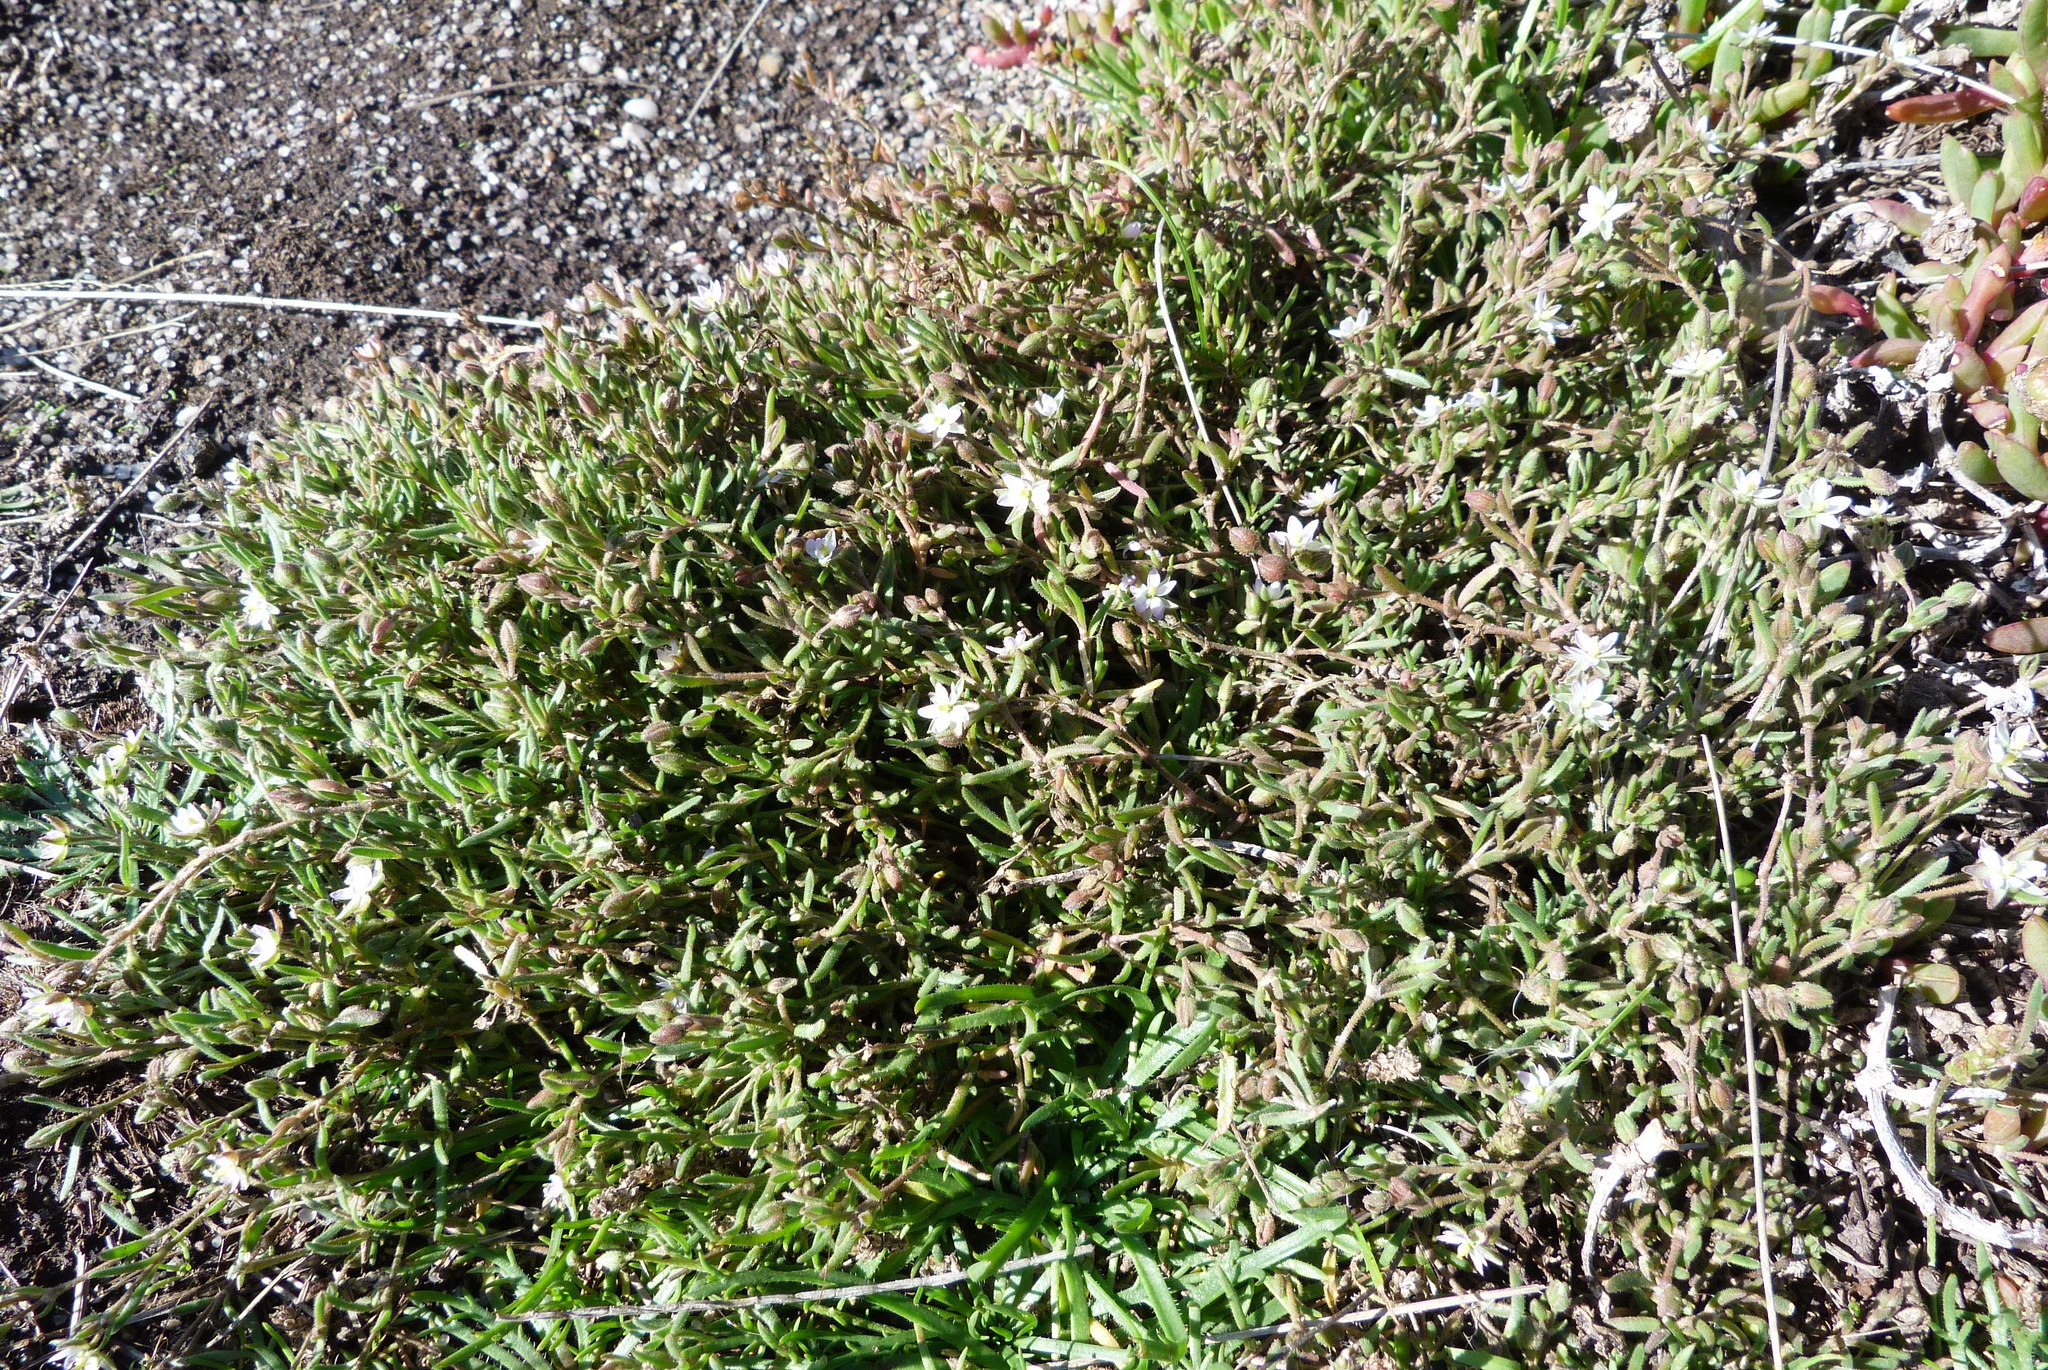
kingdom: Plantae
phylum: Tracheophyta
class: Magnoliopsida
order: Caryophyllales
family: Caryophyllaceae
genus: Spergularia
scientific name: Spergularia media
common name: Greater sea-spurrey
